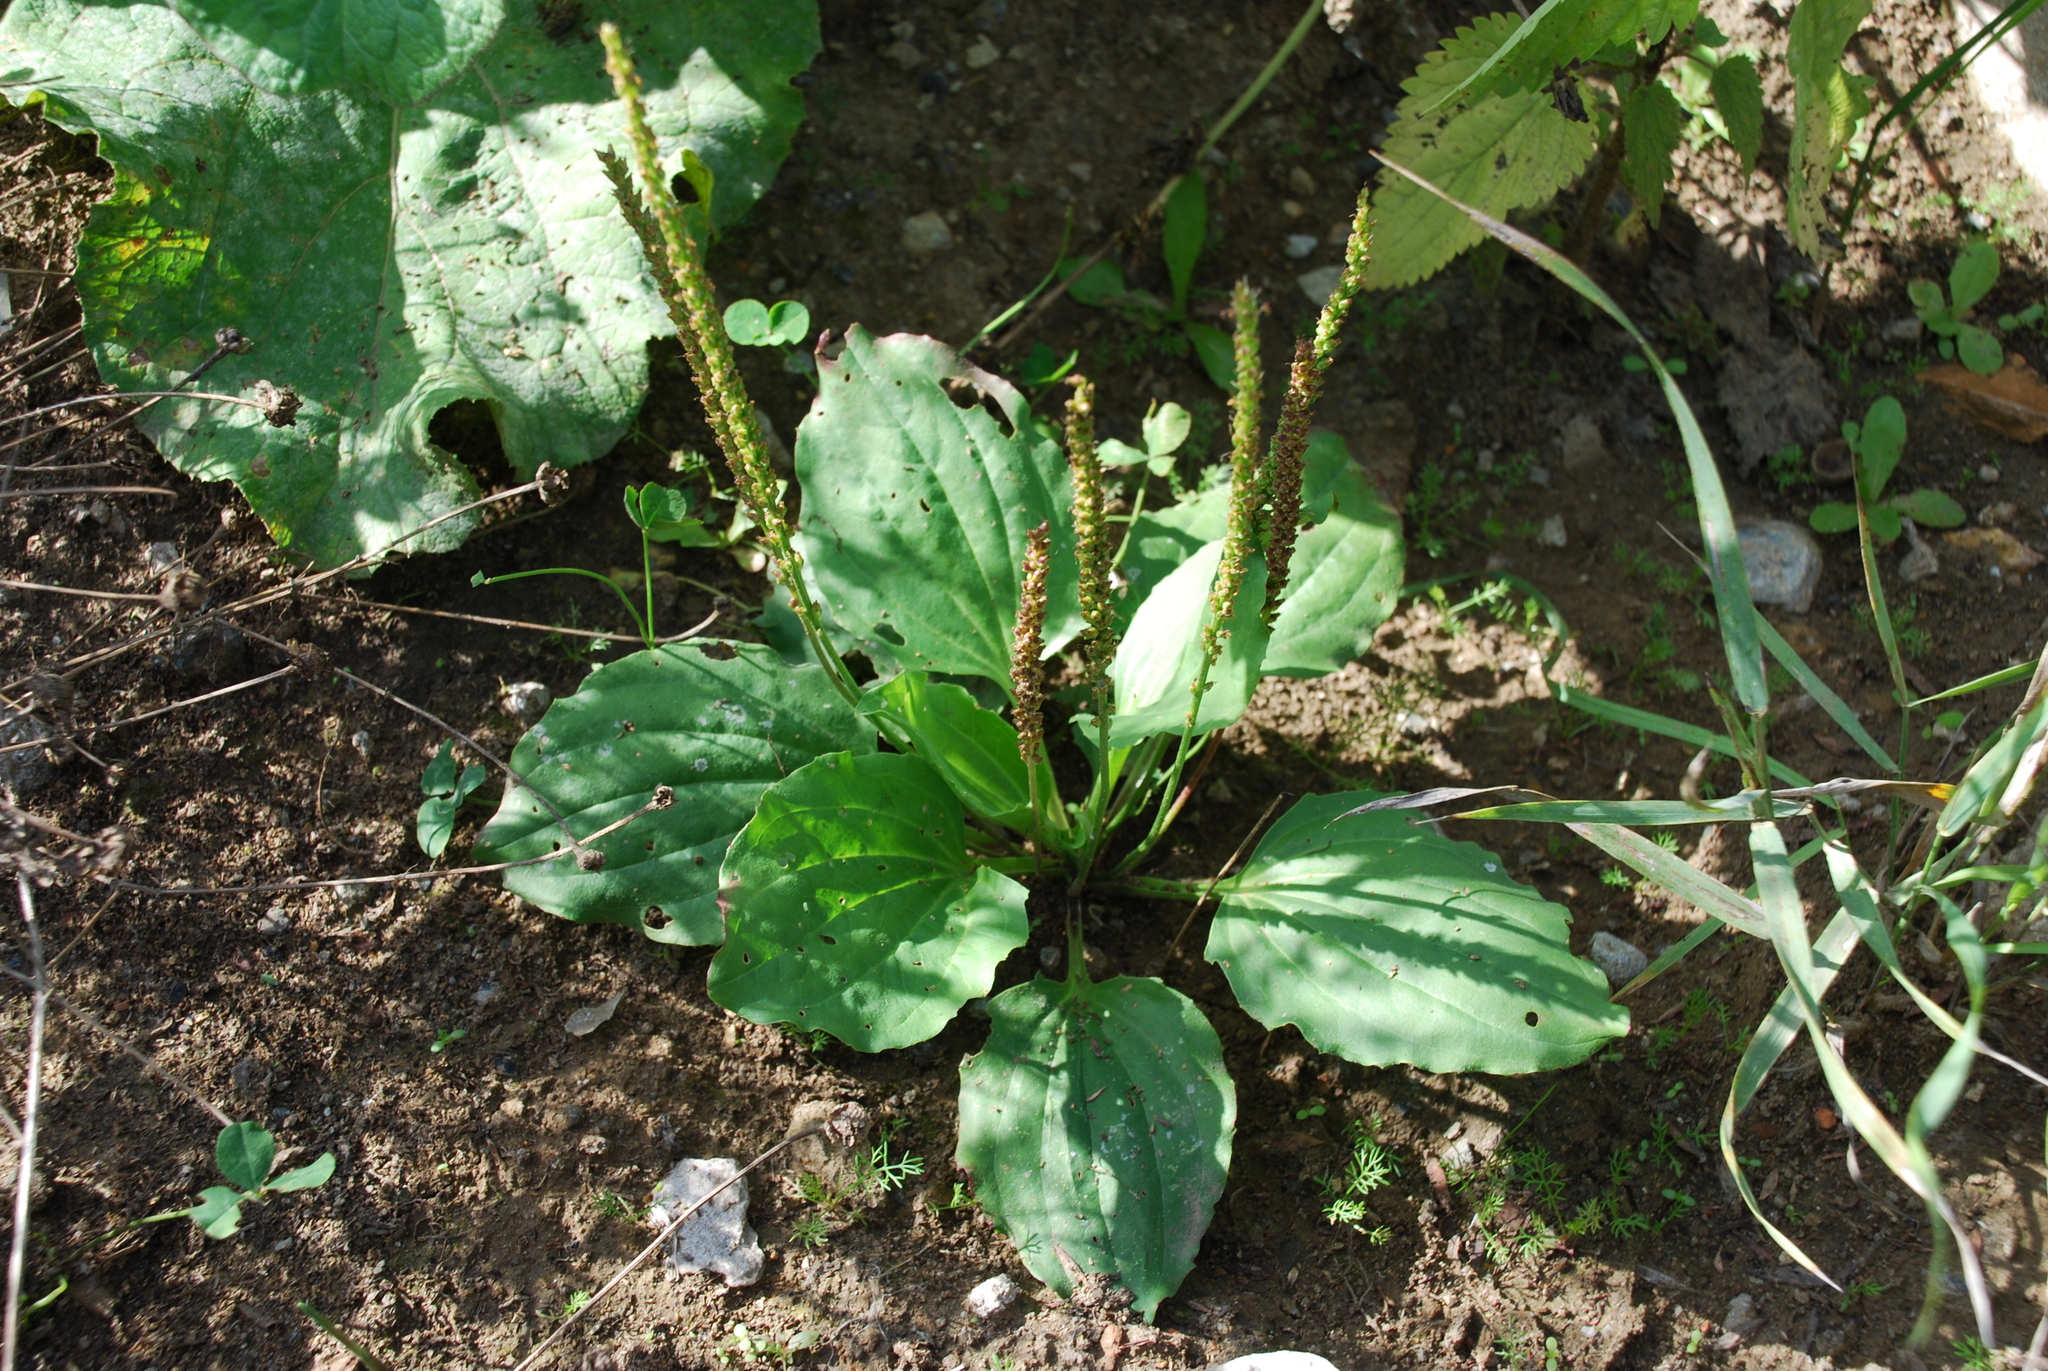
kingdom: Plantae
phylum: Tracheophyta
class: Magnoliopsida
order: Lamiales
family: Plantaginaceae
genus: Plantago
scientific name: Plantago major
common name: Common plantain
